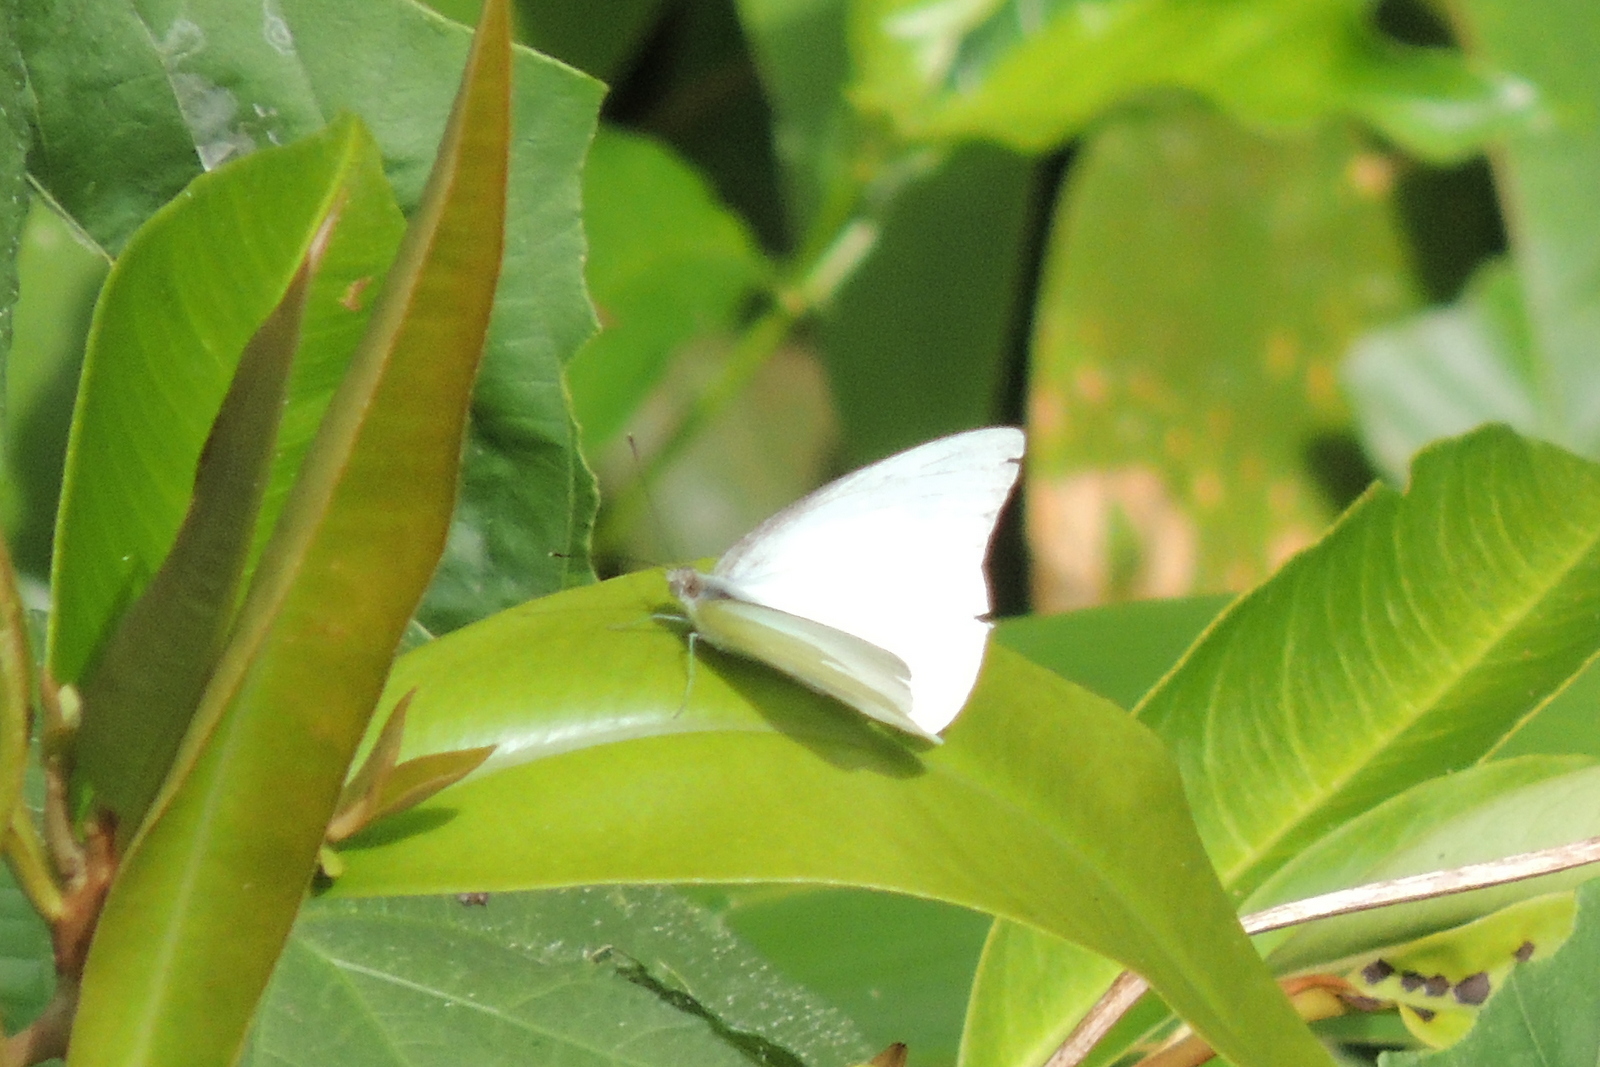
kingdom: Animalia
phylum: Arthropoda
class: Insecta
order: Lepidoptera
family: Pieridae
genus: Appias
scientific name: Appias albina
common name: Common albatross
